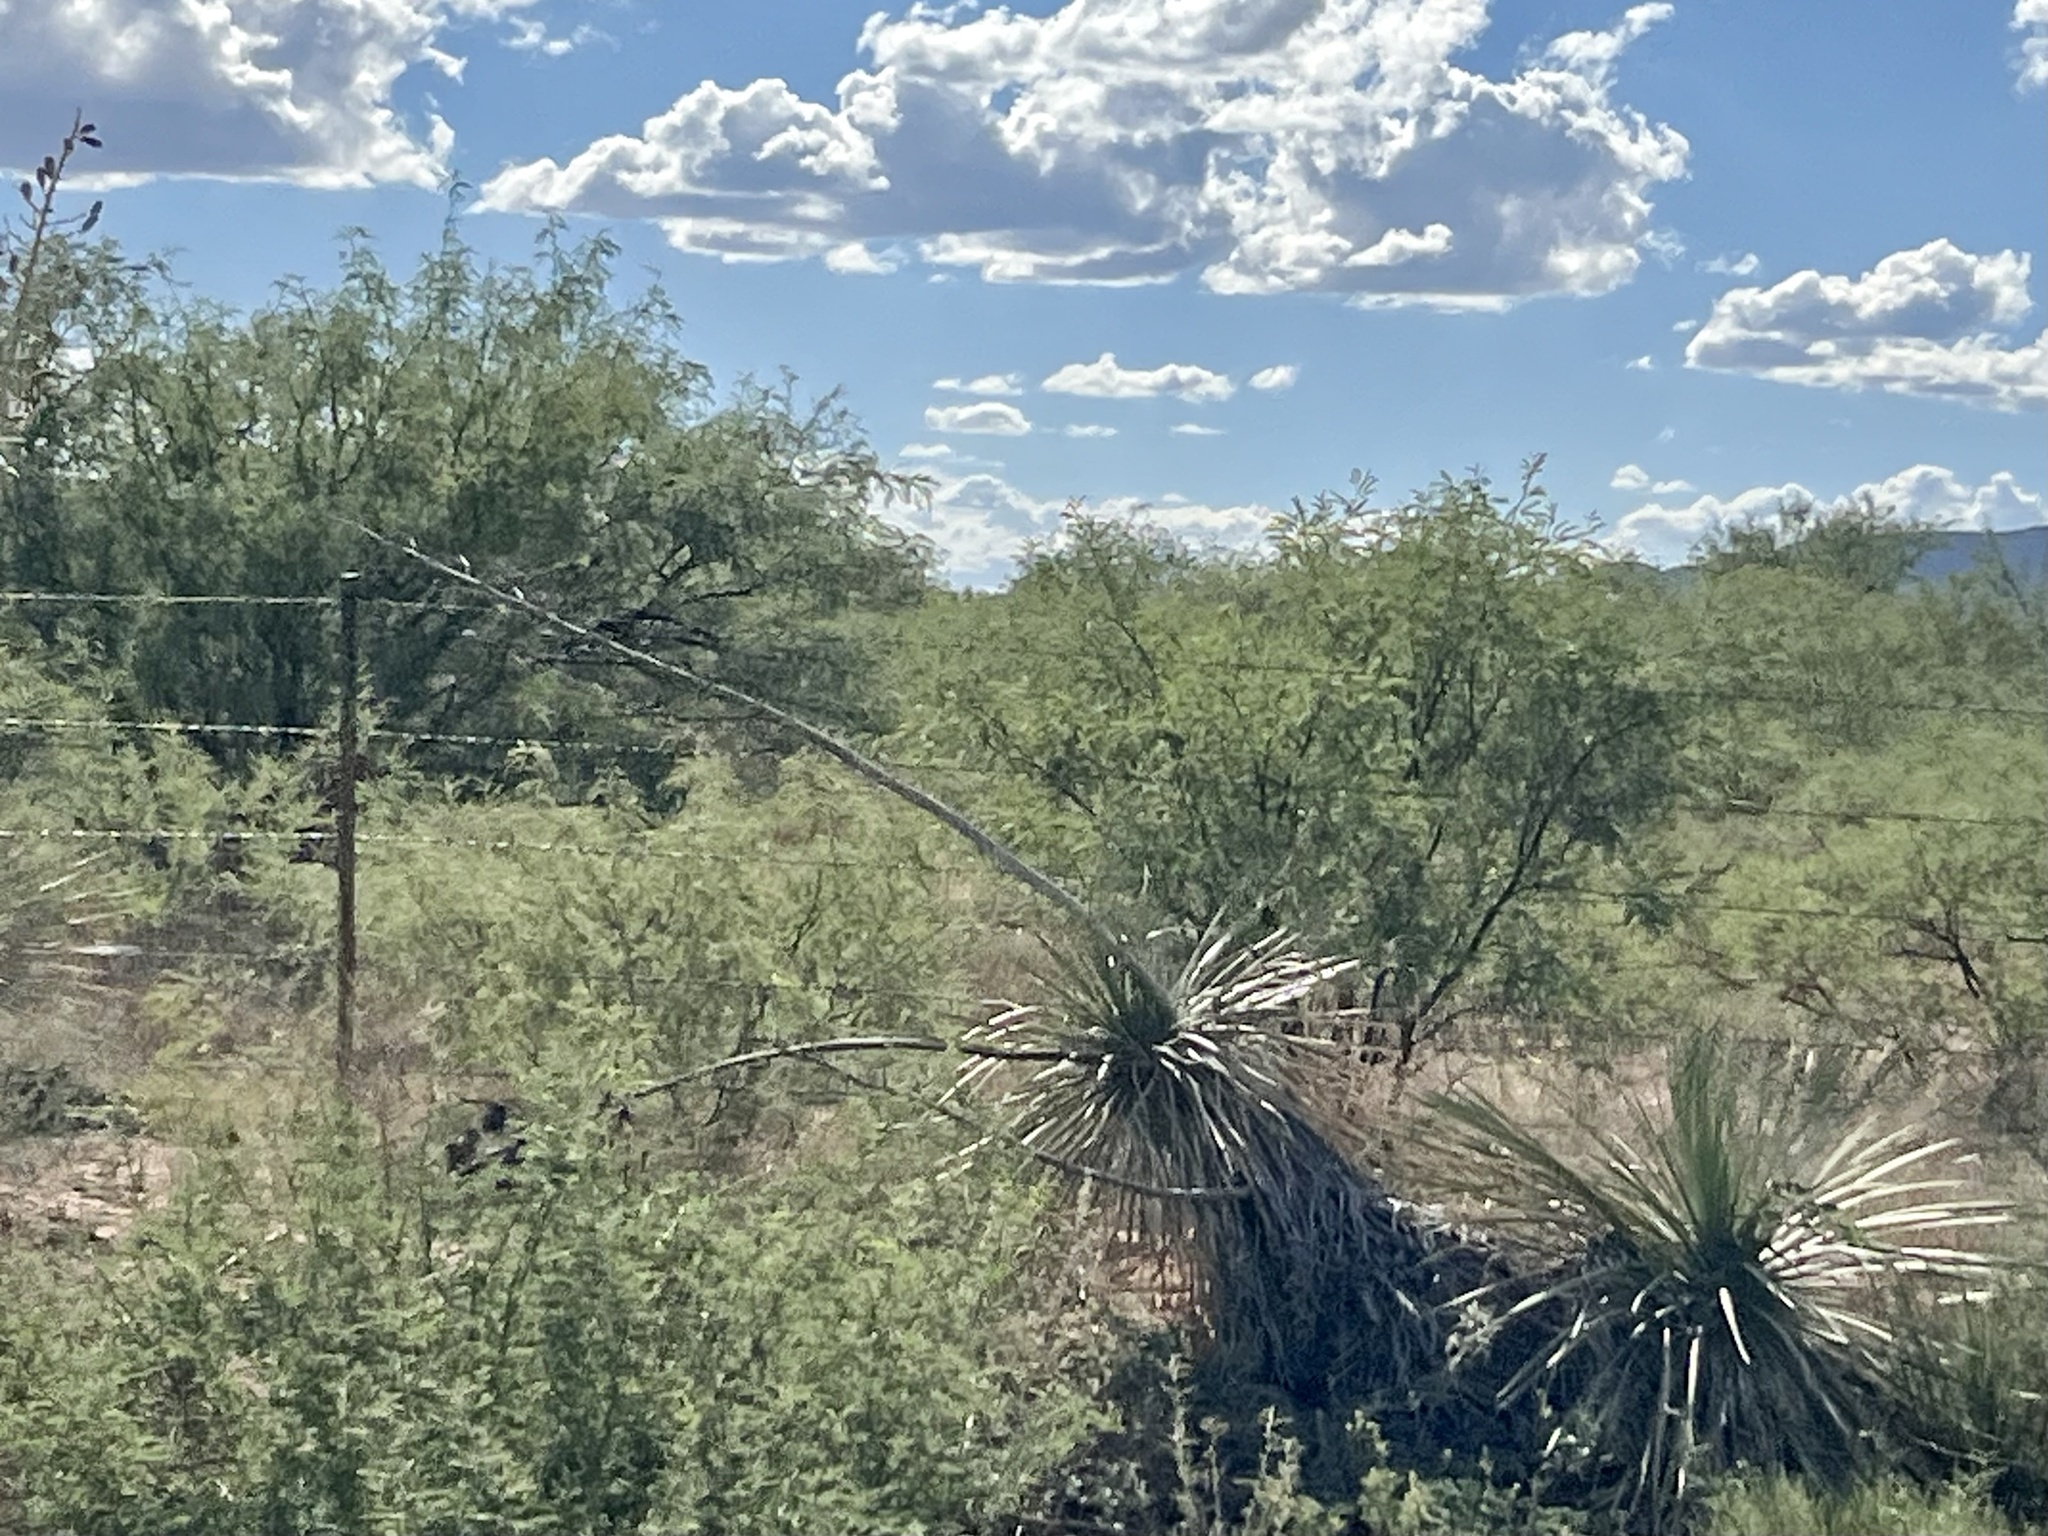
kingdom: Plantae
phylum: Tracheophyta
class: Liliopsida
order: Asparagales
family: Asparagaceae
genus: Yucca
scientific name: Yucca elata
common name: Palmella
